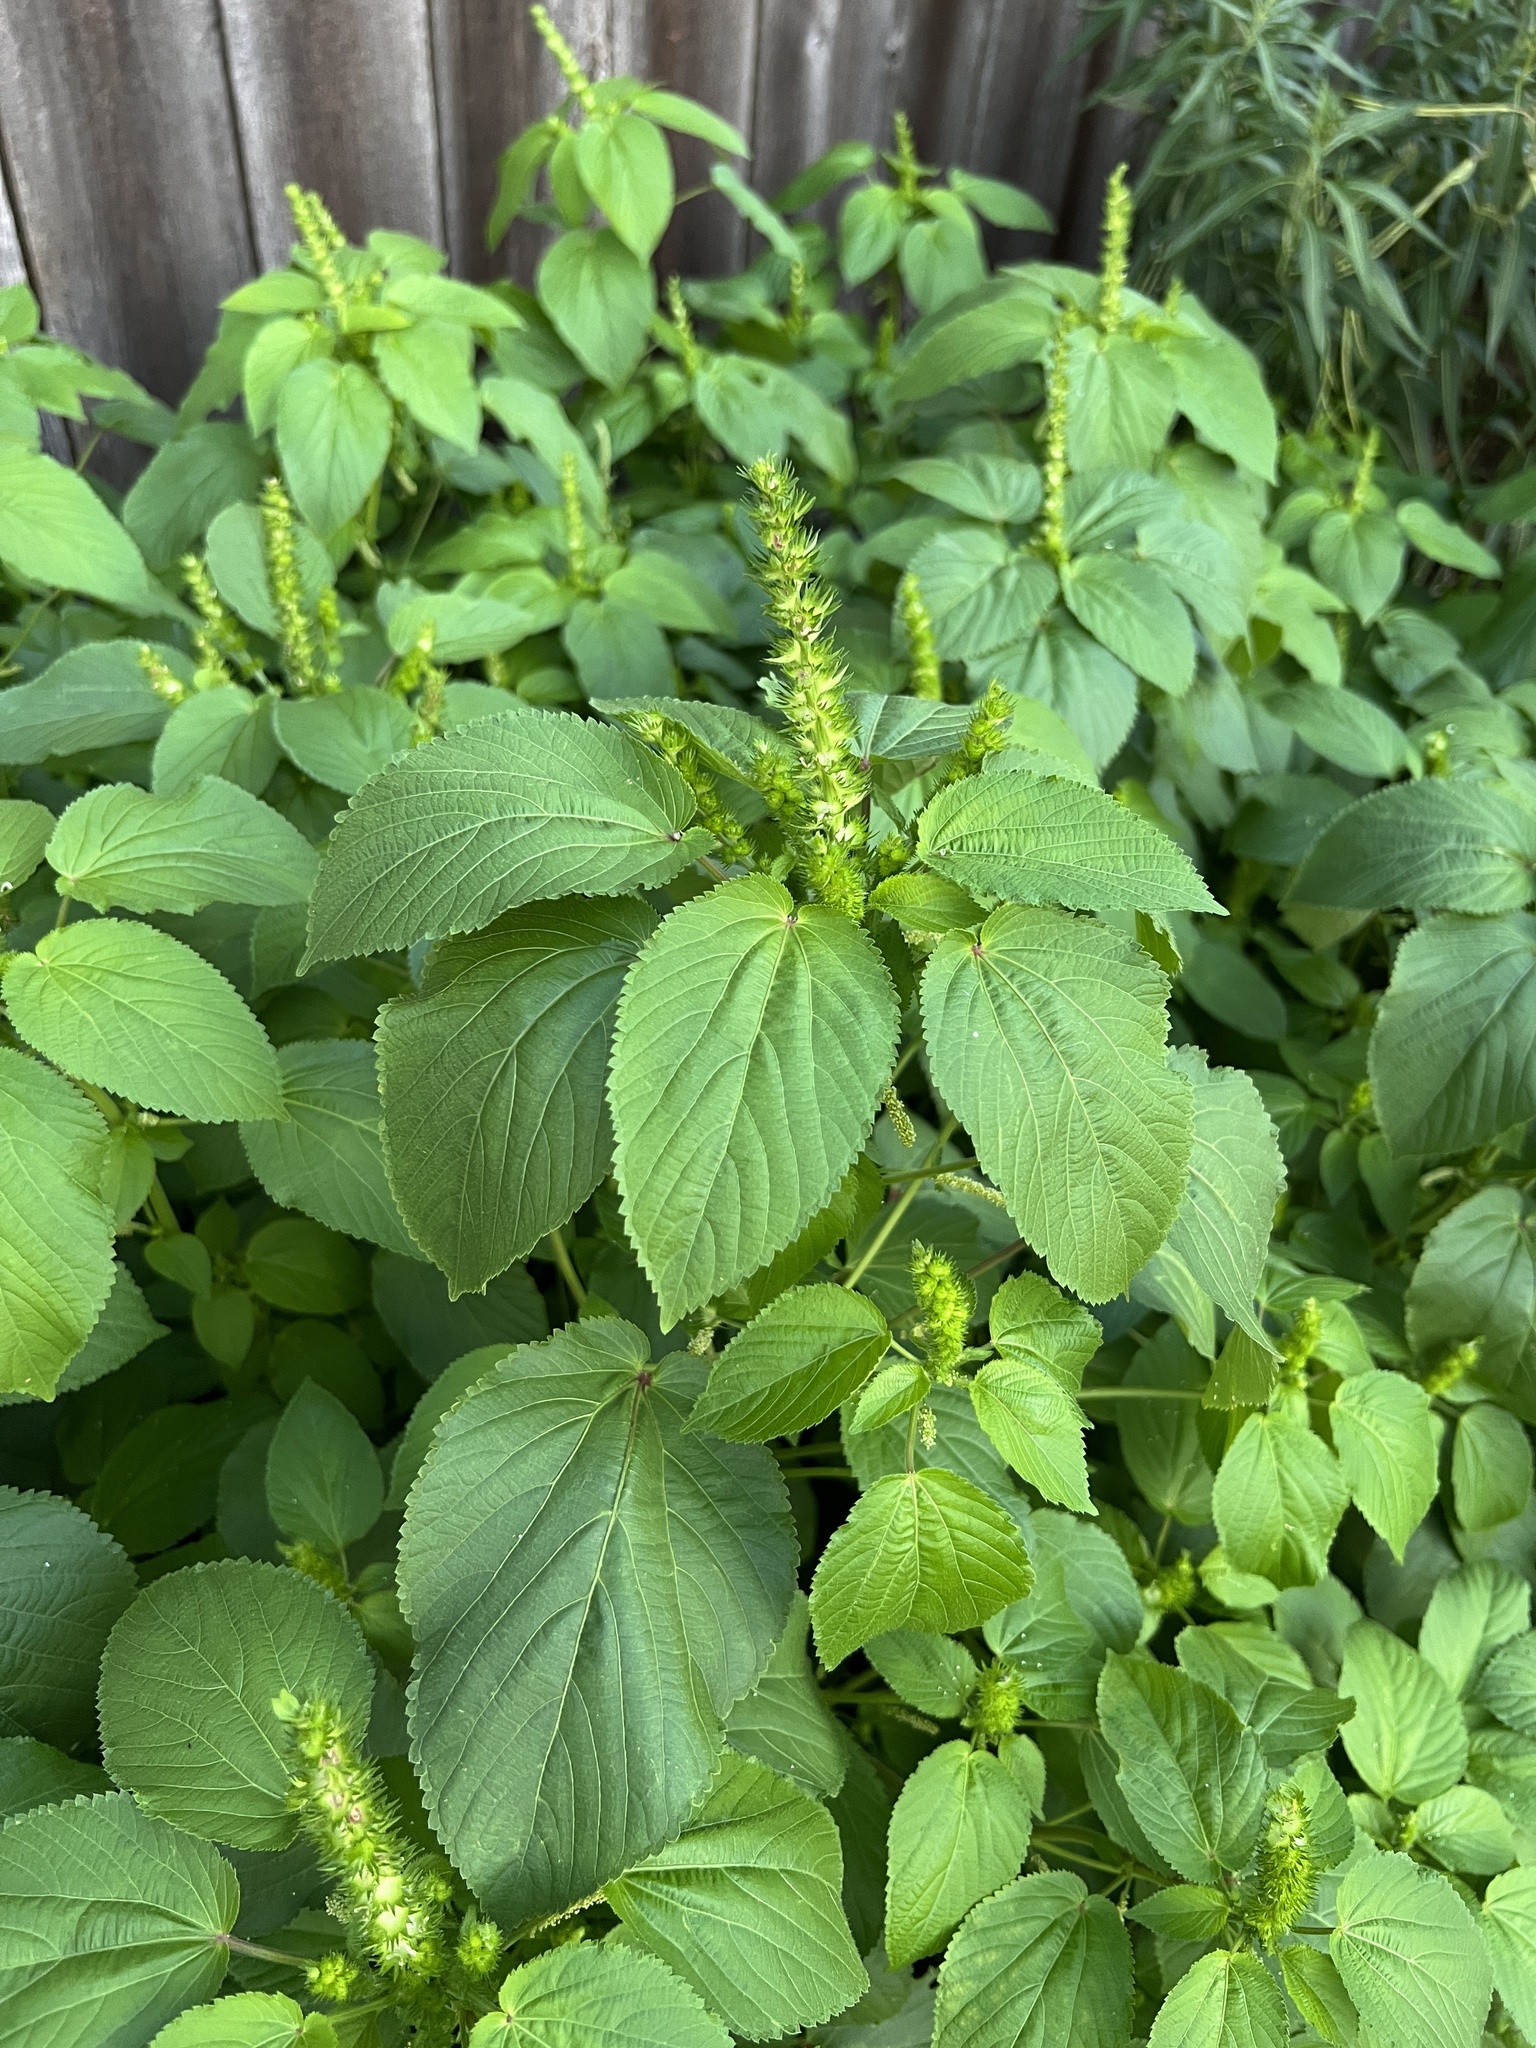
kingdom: Plantae
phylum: Tracheophyta
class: Magnoliopsida
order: Malpighiales
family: Euphorbiaceae
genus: Acalypha
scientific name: Acalypha ostryifolia
